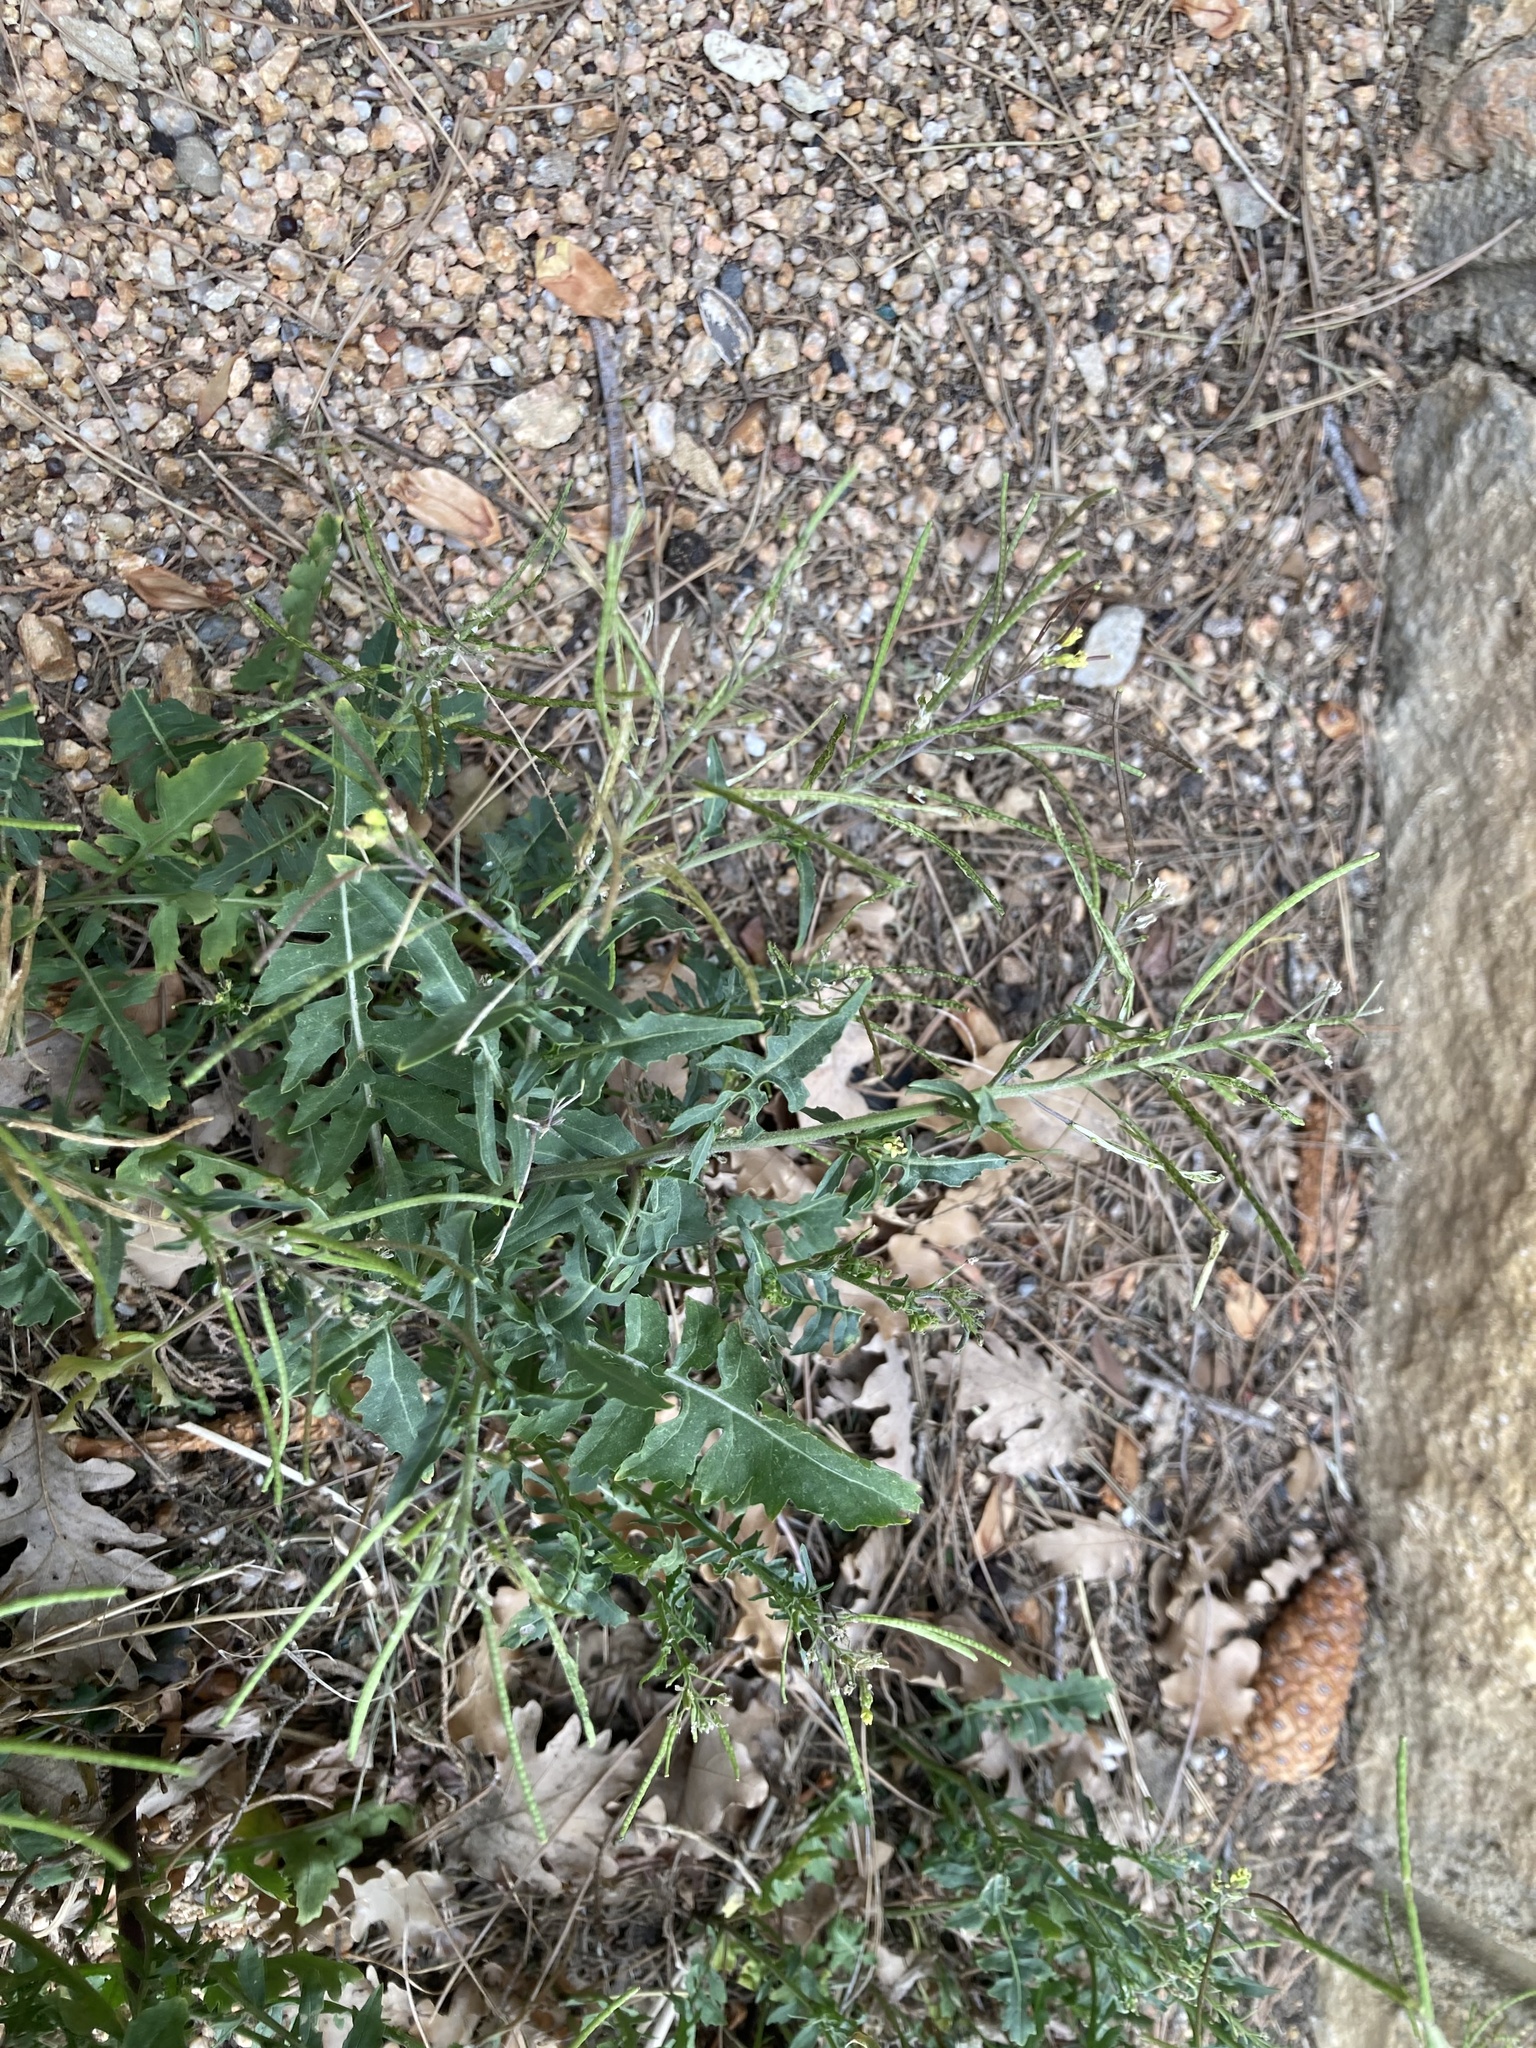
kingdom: Plantae
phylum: Tracheophyta
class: Magnoliopsida
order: Brassicales
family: Brassicaceae
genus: Sisymbrium
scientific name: Sisymbrium irio
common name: London rocket
